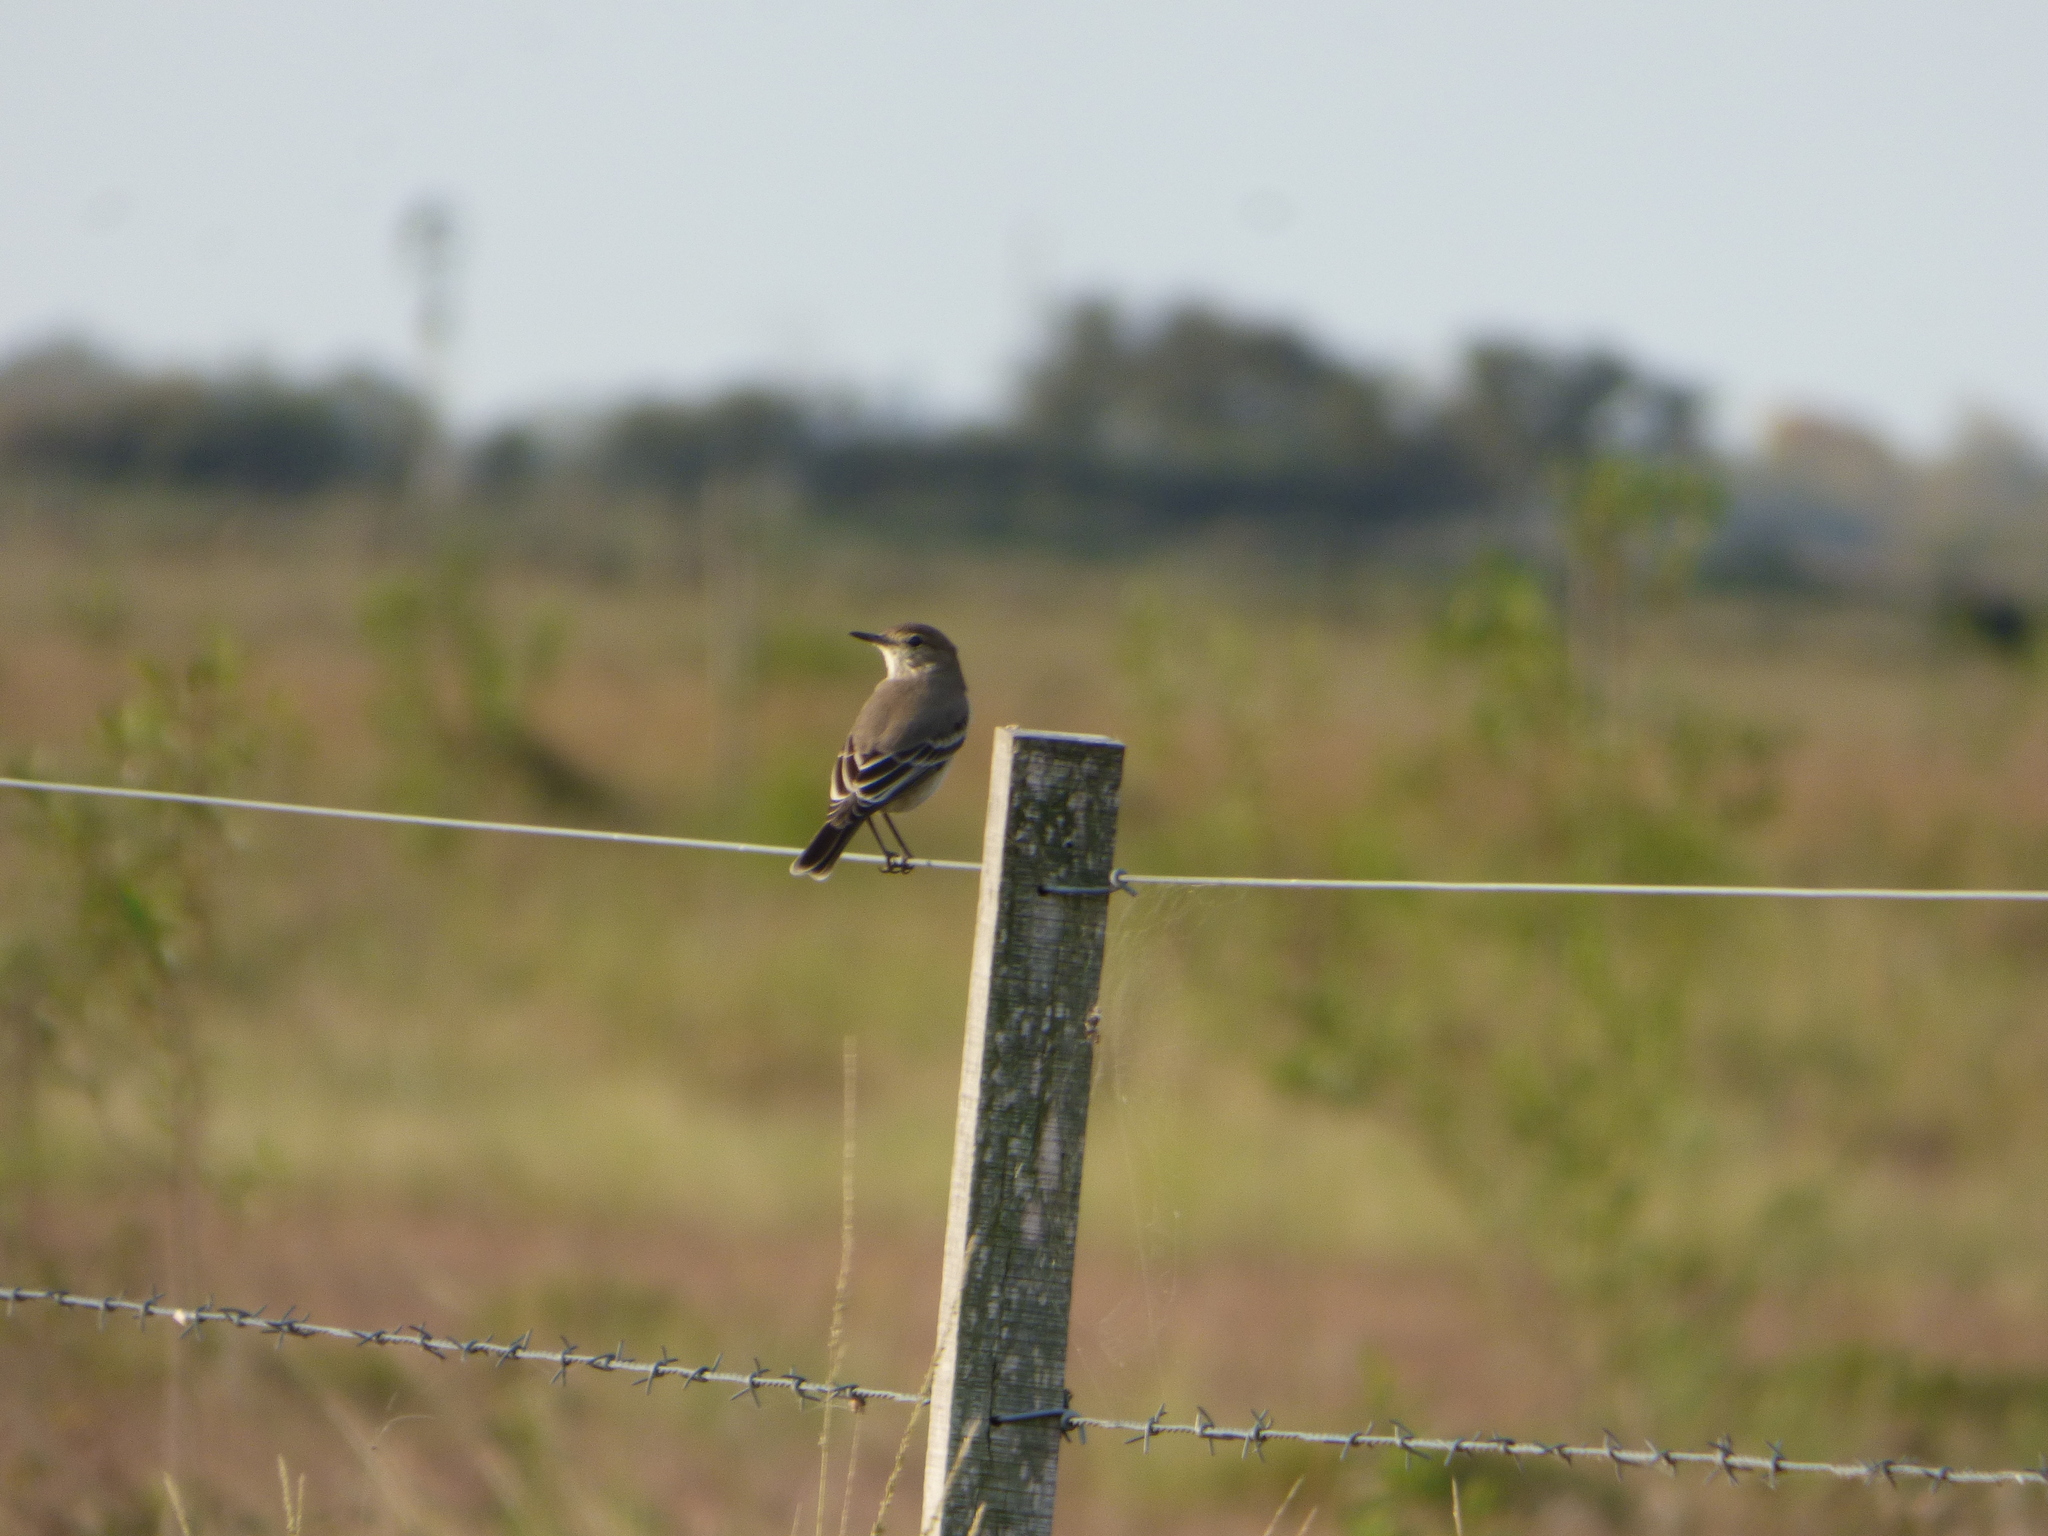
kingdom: Animalia
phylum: Chordata
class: Aves
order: Passeriformes
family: Tyrannidae
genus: Agriornis
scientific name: Agriornis murinus
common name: Lesser shrike-tyrant
